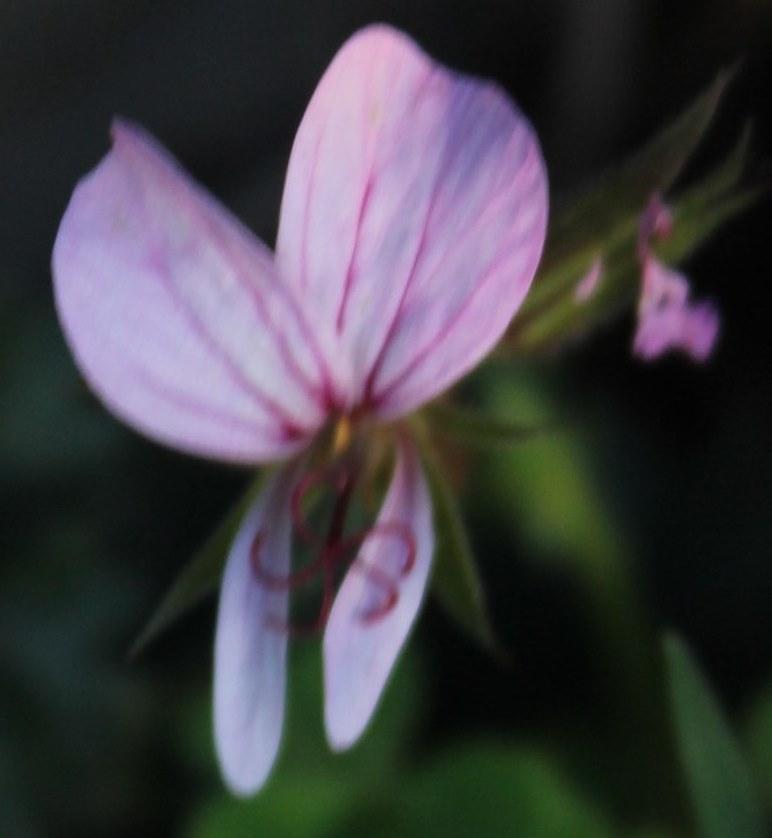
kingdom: Plantae
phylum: Tracheophyta
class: Magnoliopsida
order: Geraniales
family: Geraniaceae
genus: Pelargonium
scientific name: Pelargonium candicans
